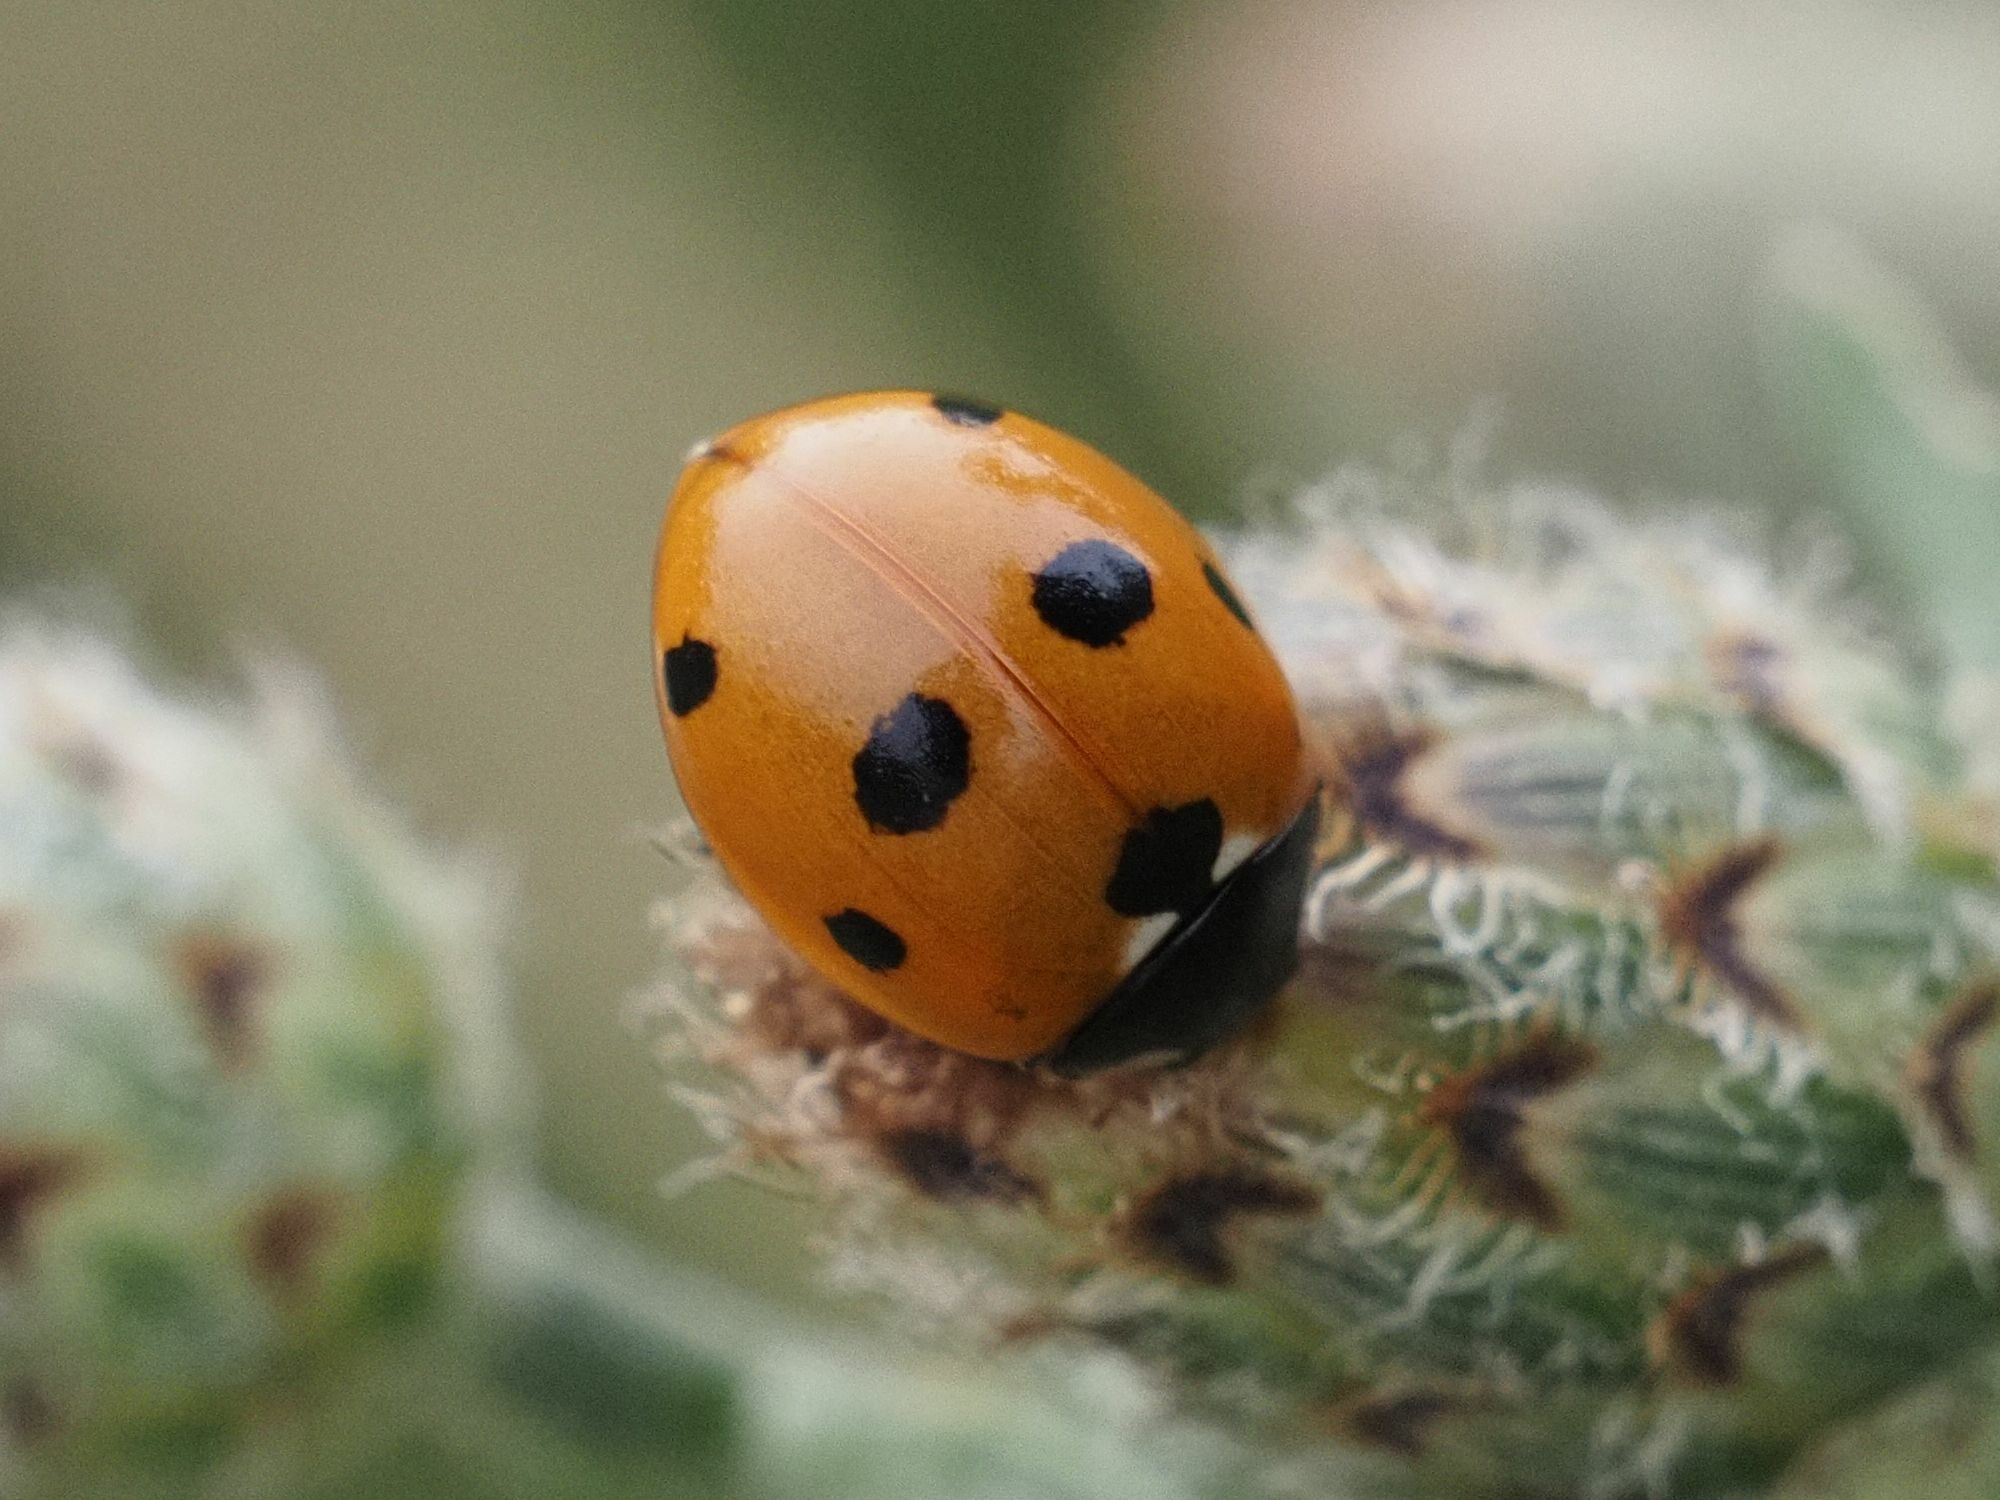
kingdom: Animalia
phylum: Arthropoda
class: Insecta
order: Coleoptera
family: Coccinellidae
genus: Coccinella
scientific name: Coccinella septempunctata
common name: Sevenspotted lady beetle
